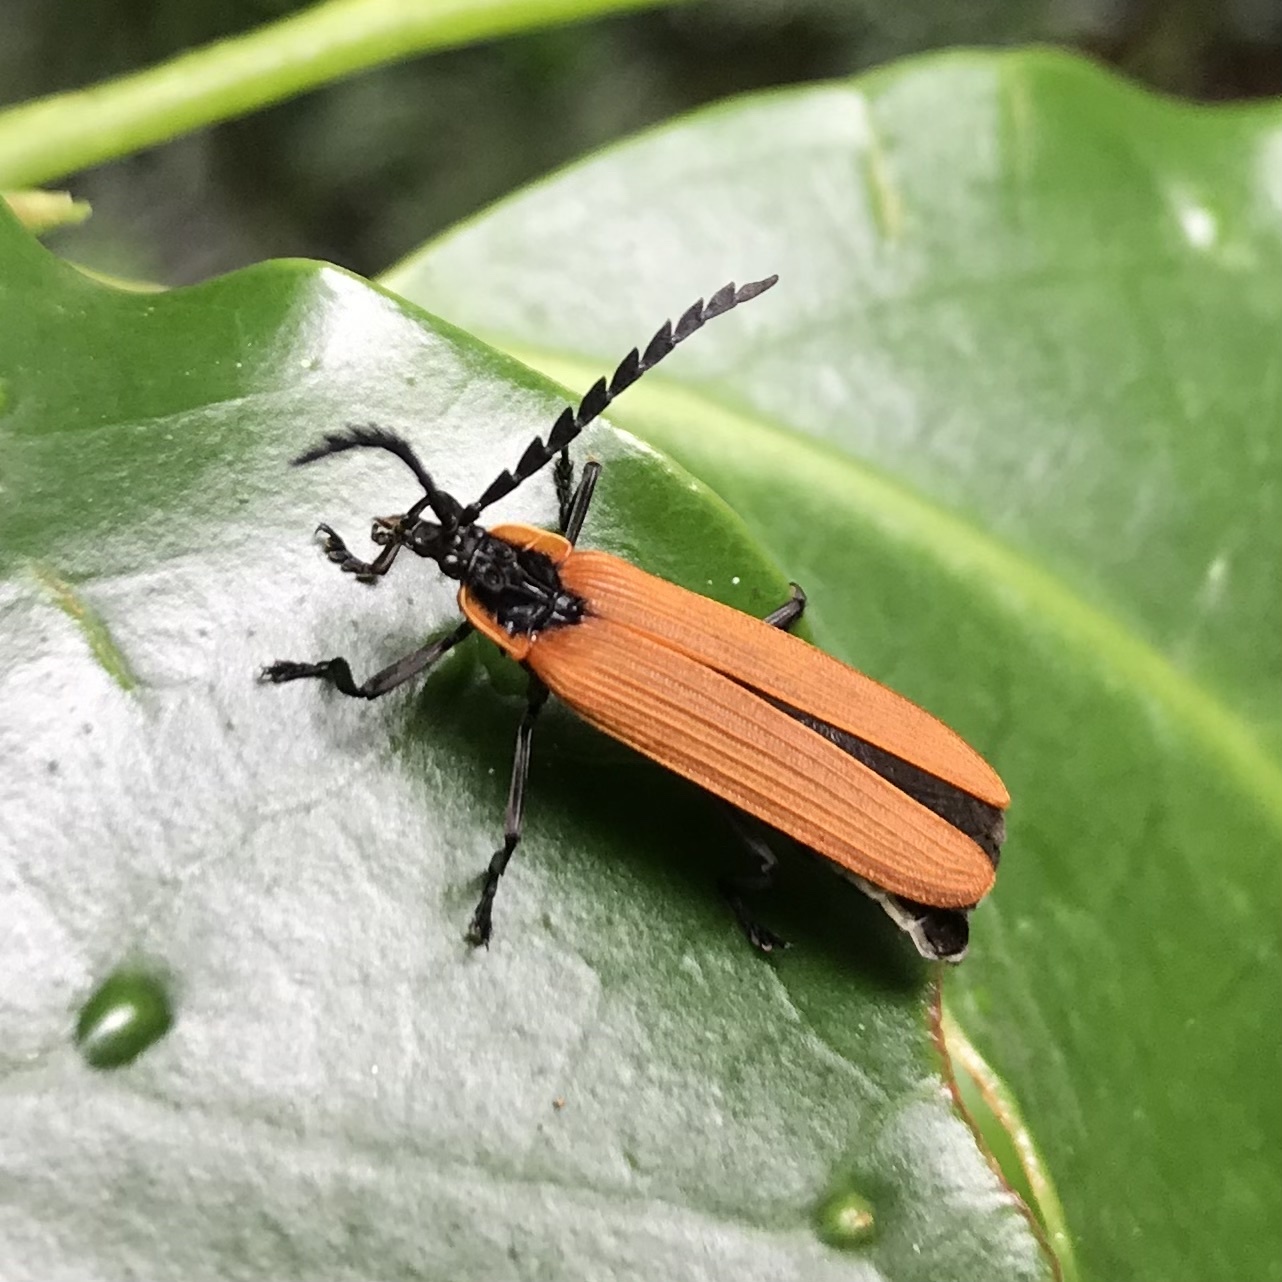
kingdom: Animalia
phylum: Arthropoda
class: Insecta
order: Coleoptera
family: Lycidae
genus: Porrostoma
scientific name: Porrostoma
